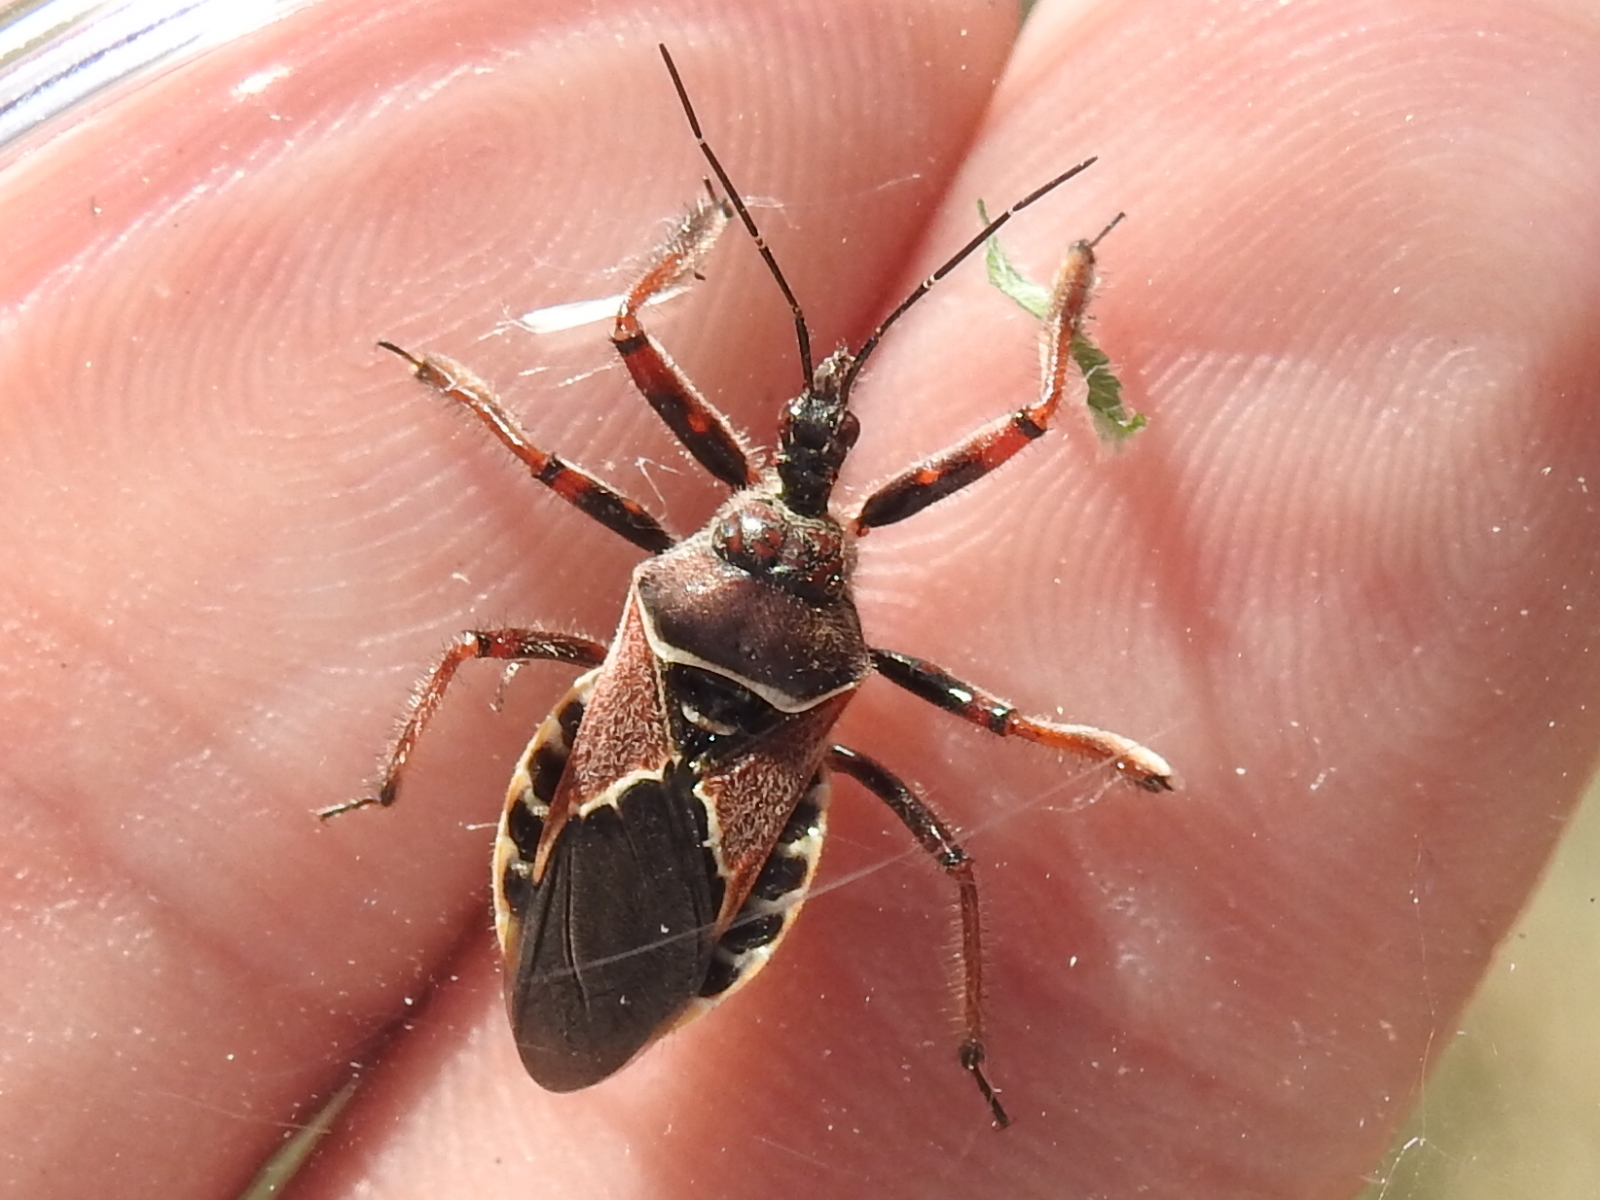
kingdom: Animalia
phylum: Arthropoda
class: Insecta
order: Hemiptera
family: Reduviidae
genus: Apiomerus
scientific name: Apiomerus spissipes
